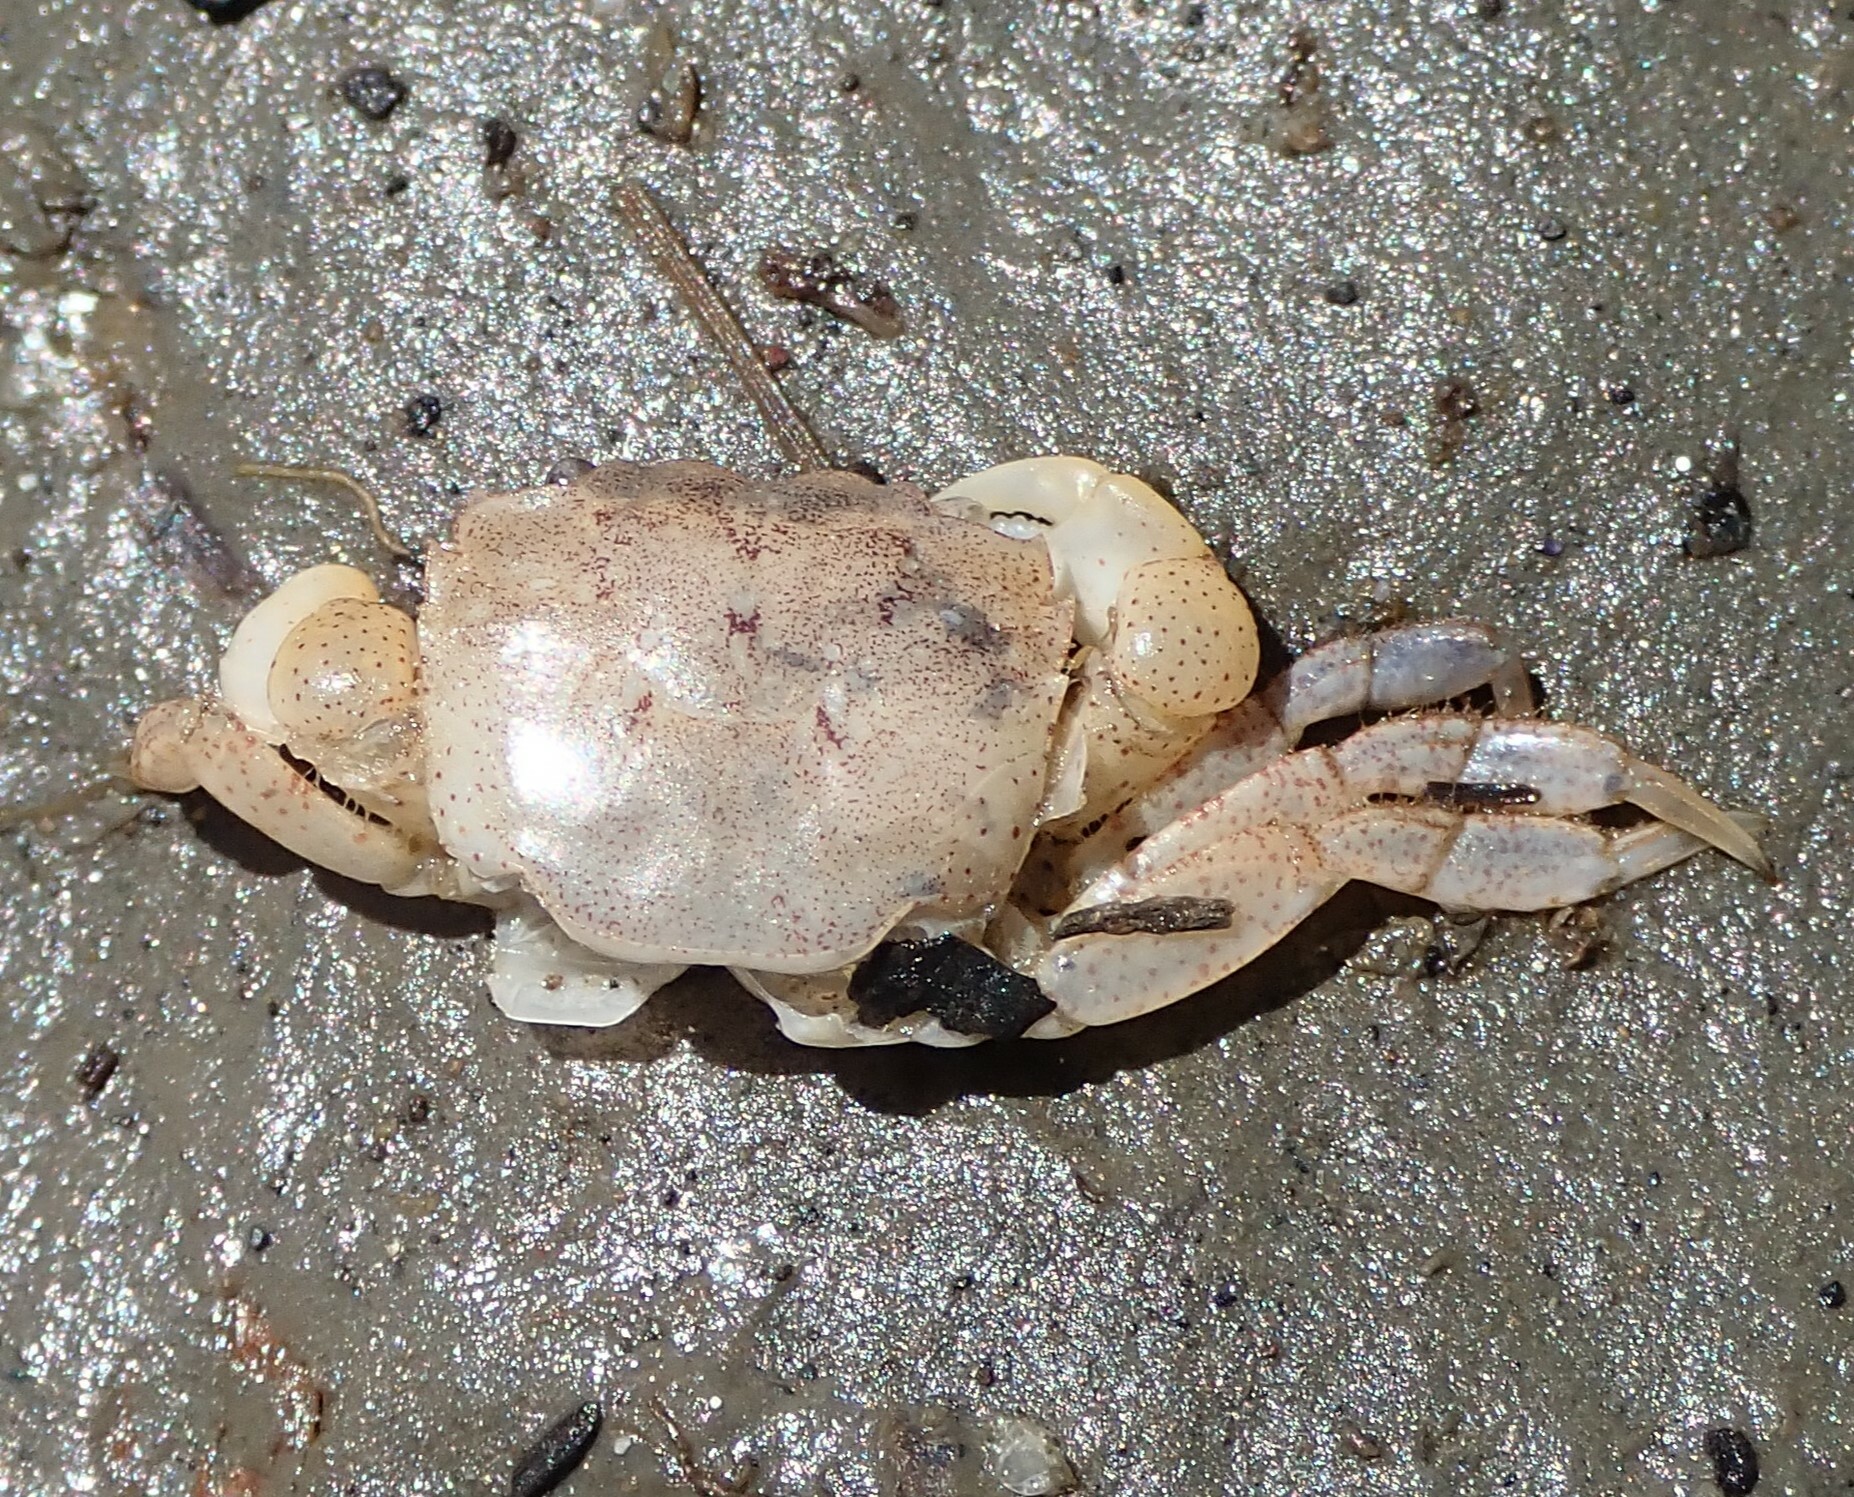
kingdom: Animalia
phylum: Arthropoda
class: Malacostraca
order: Decapoda
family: Varunidae
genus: Hemigrapsus
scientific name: Hemigrapsus oregonensis
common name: Yellow shore crab
